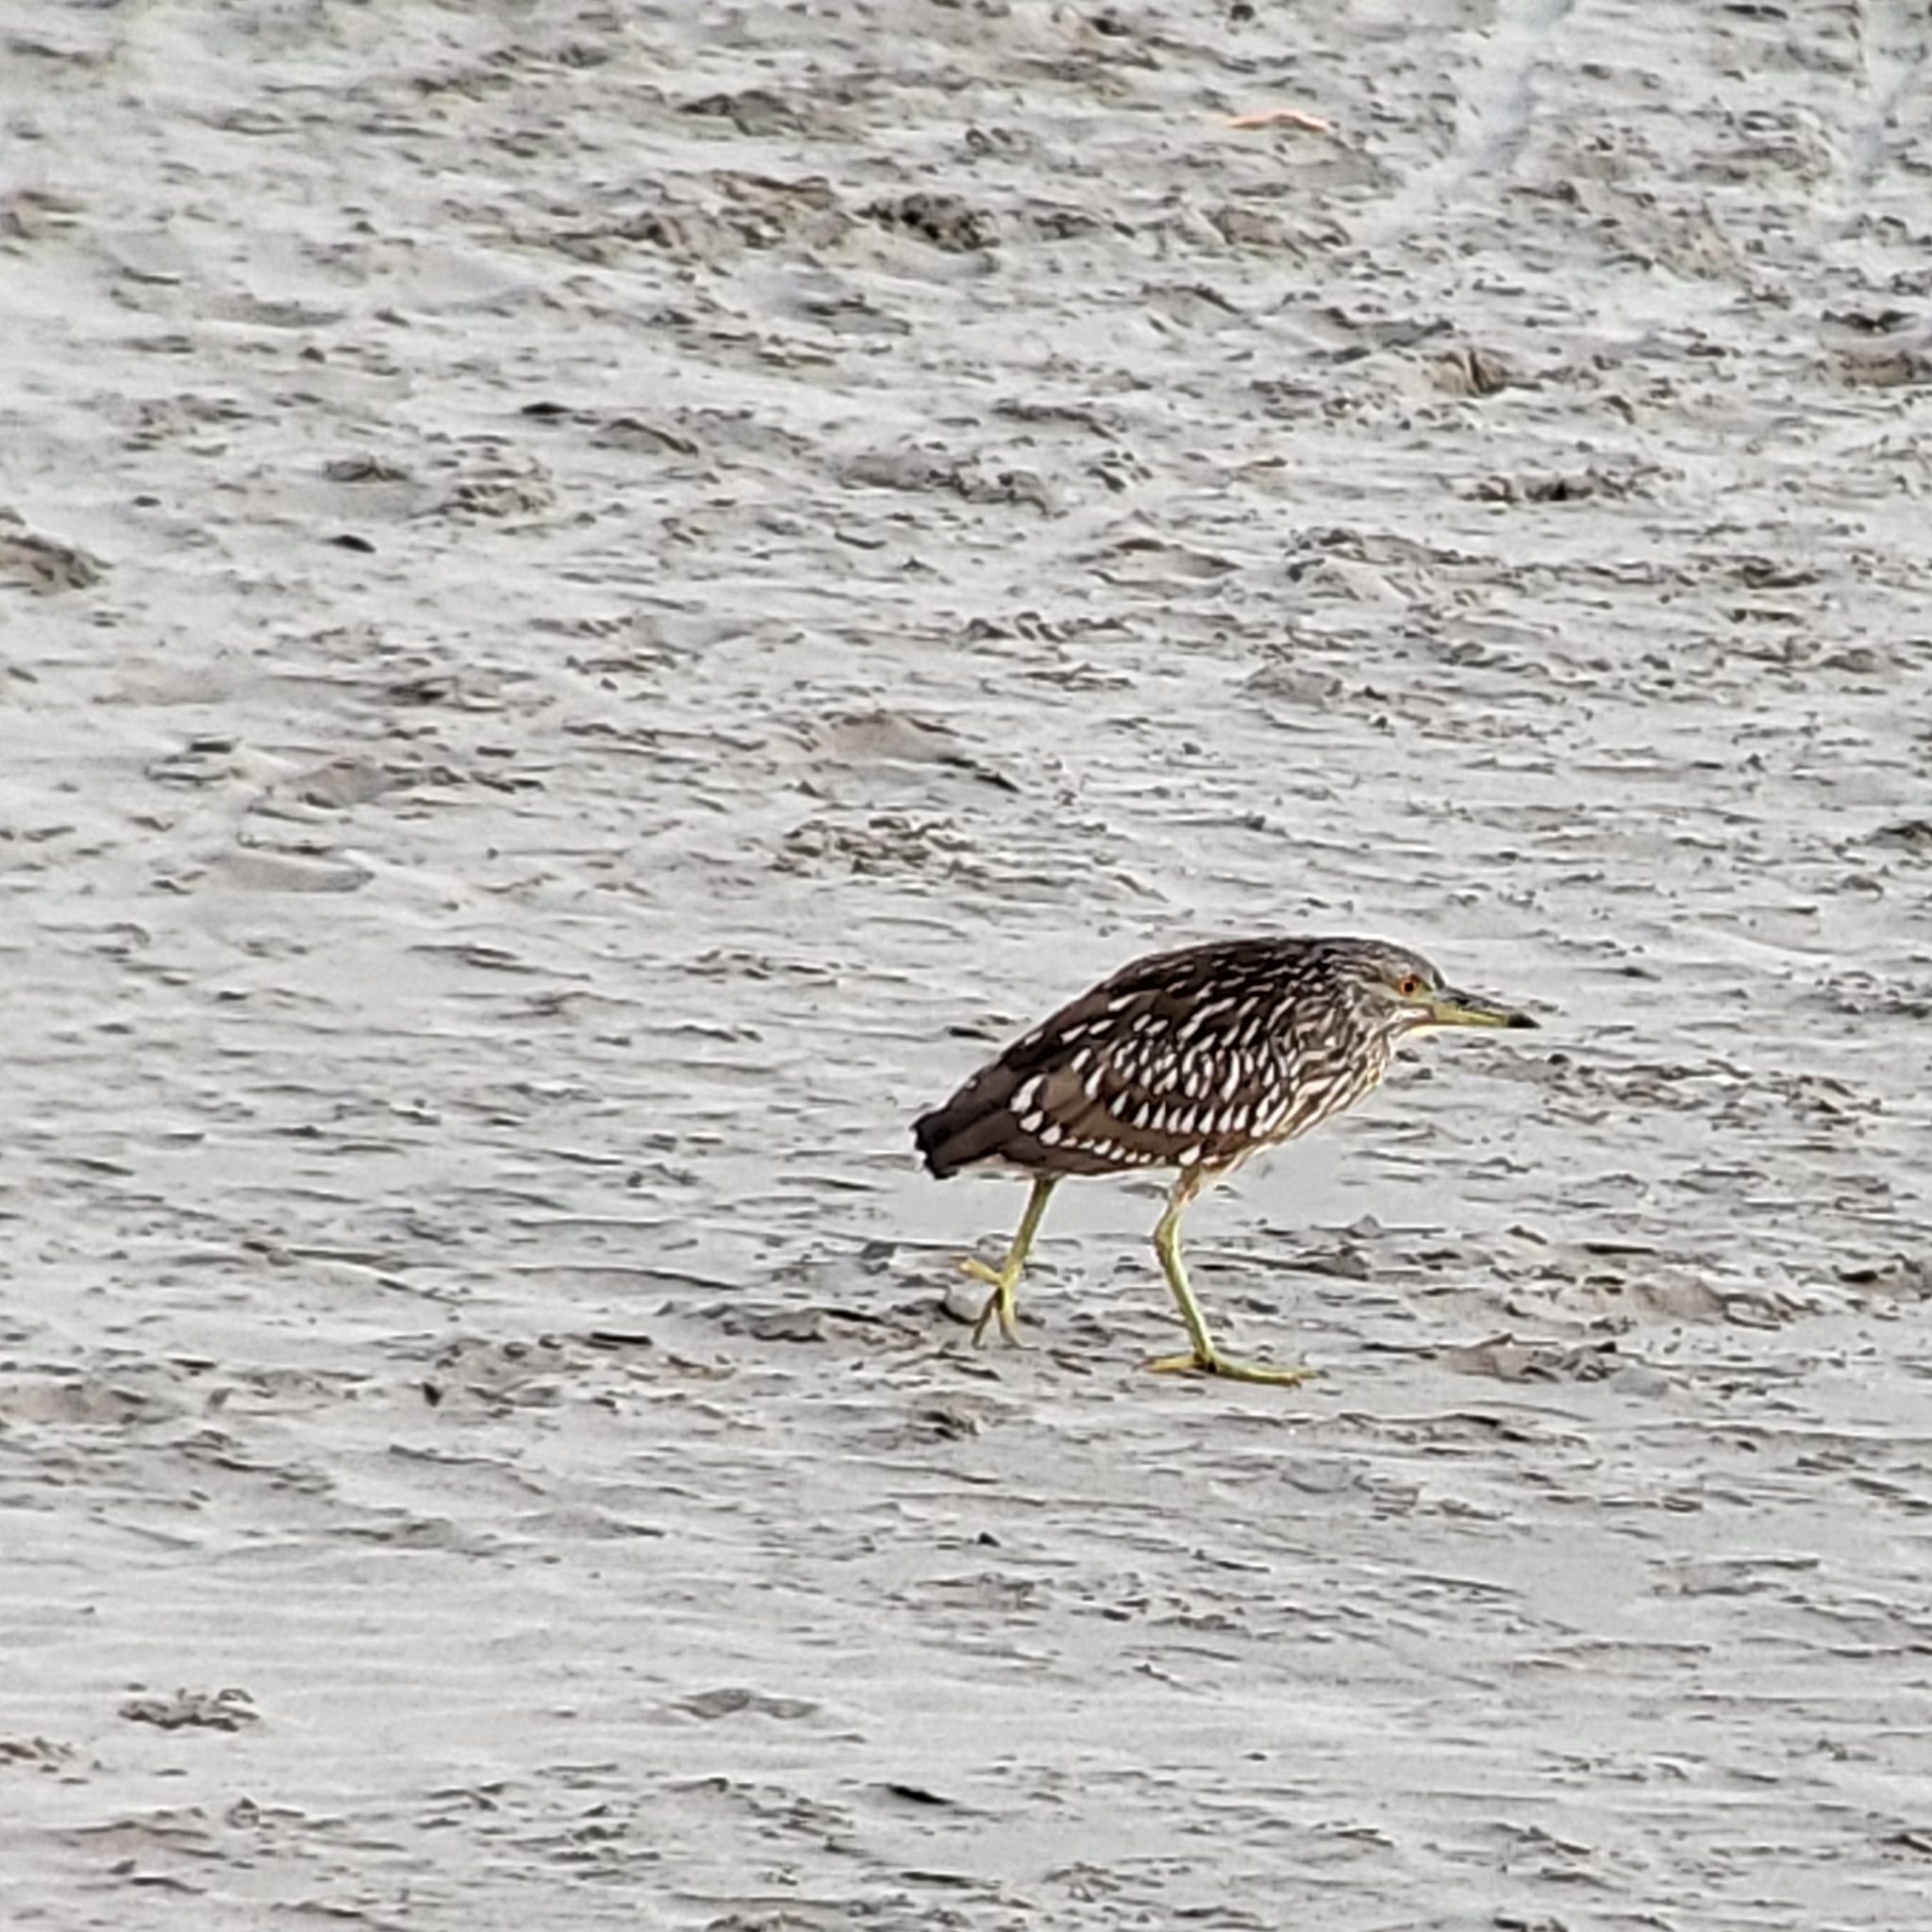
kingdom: Animalia
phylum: Chordata
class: Aves
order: Pelecaniformes
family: Ardeidae
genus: Nycticorax
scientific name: Nycticorax nycticorax
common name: Black-crowned night heron
